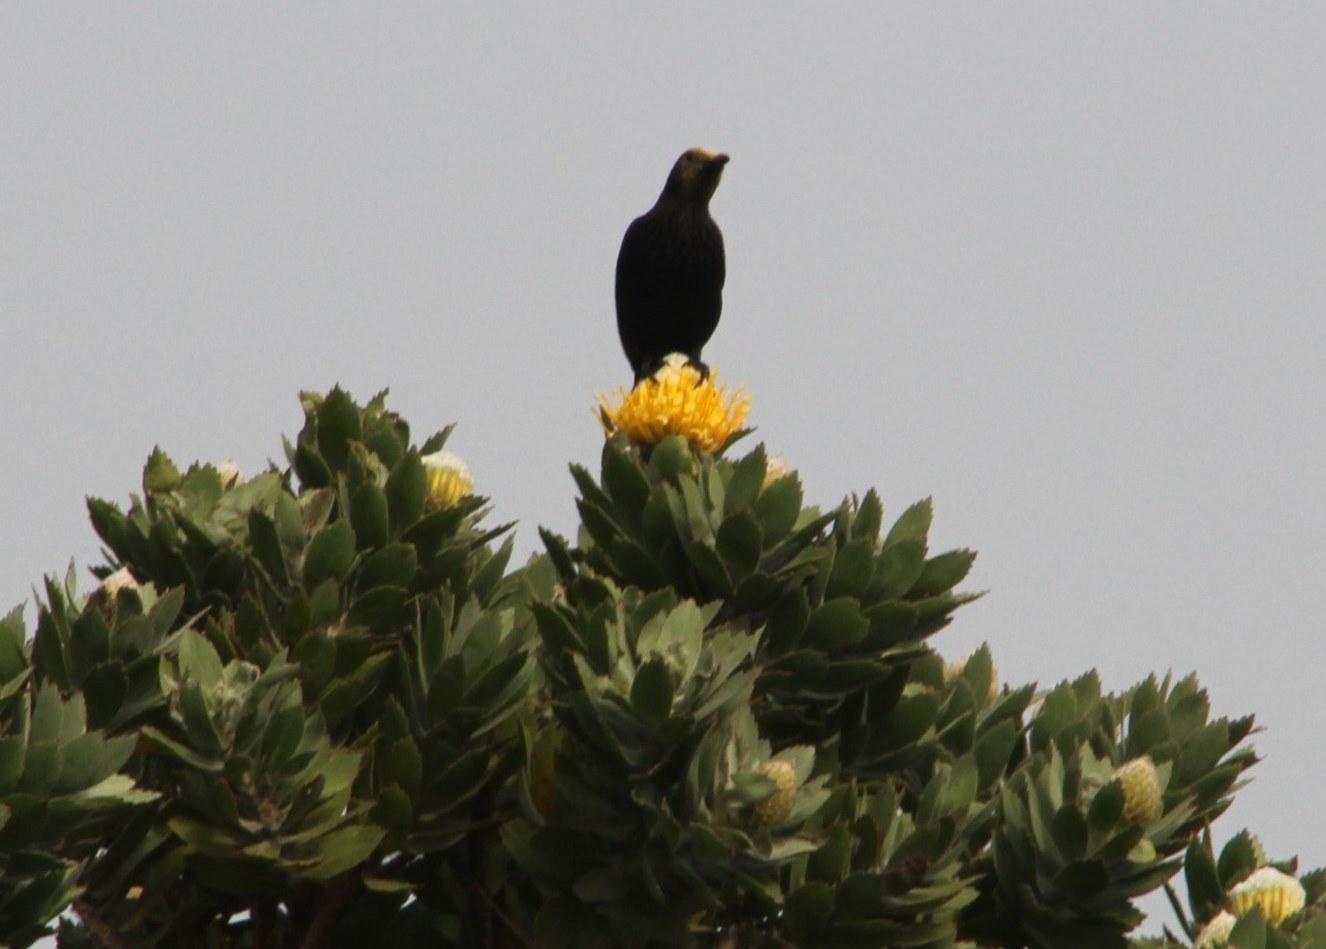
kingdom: Animalia
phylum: Chordata
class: Aves
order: Passeriformes
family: Sturnidae
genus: Onychognathus
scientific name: Onychognathus morio
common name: Red-winged starling
